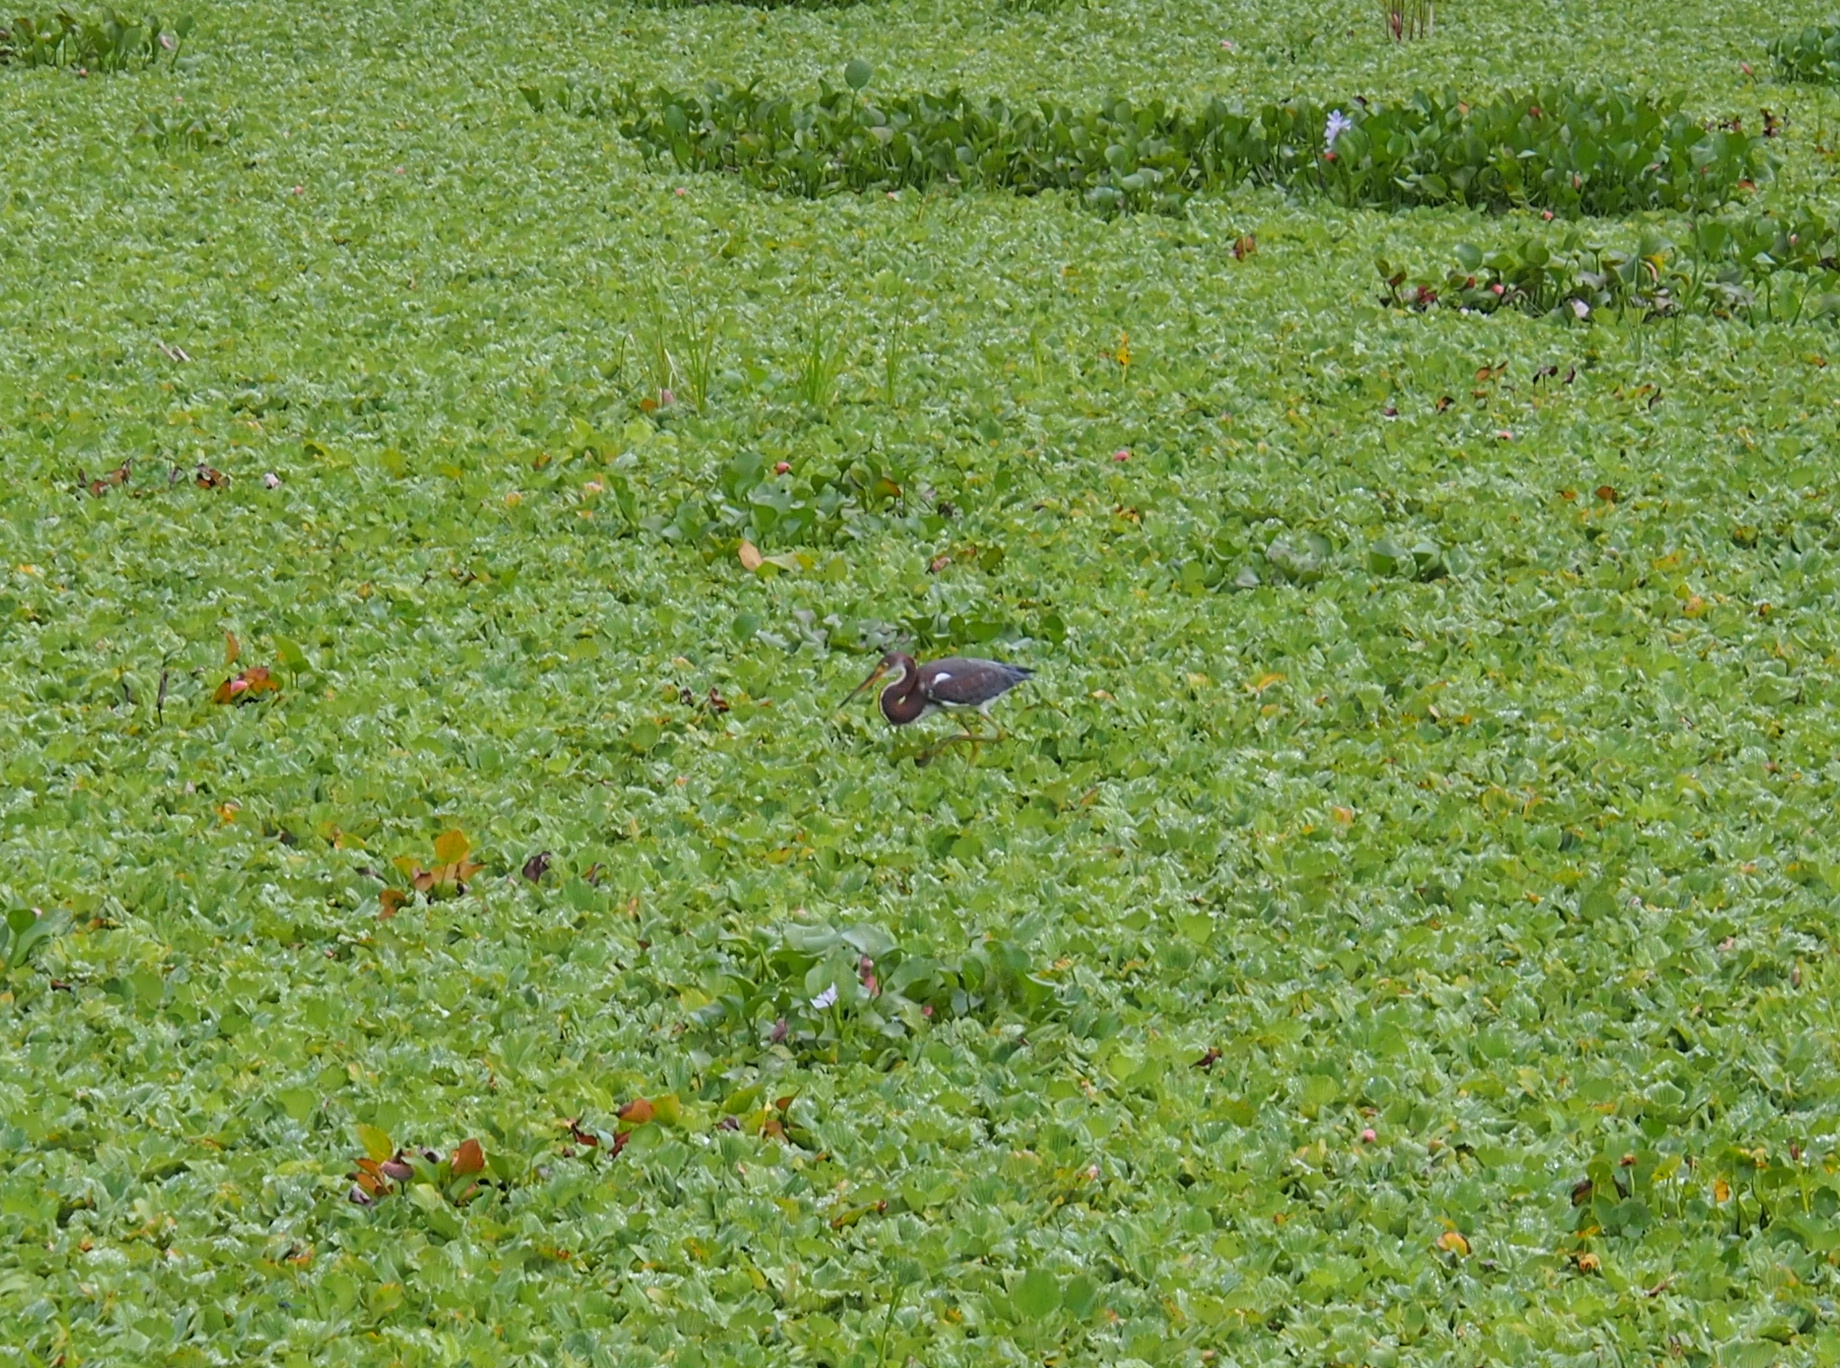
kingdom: Animalia
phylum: Chordata
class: Aves
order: Pelecaniformes
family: Ardeidae
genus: Egretta
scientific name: Egretta tricolor
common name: Tricolored heron
